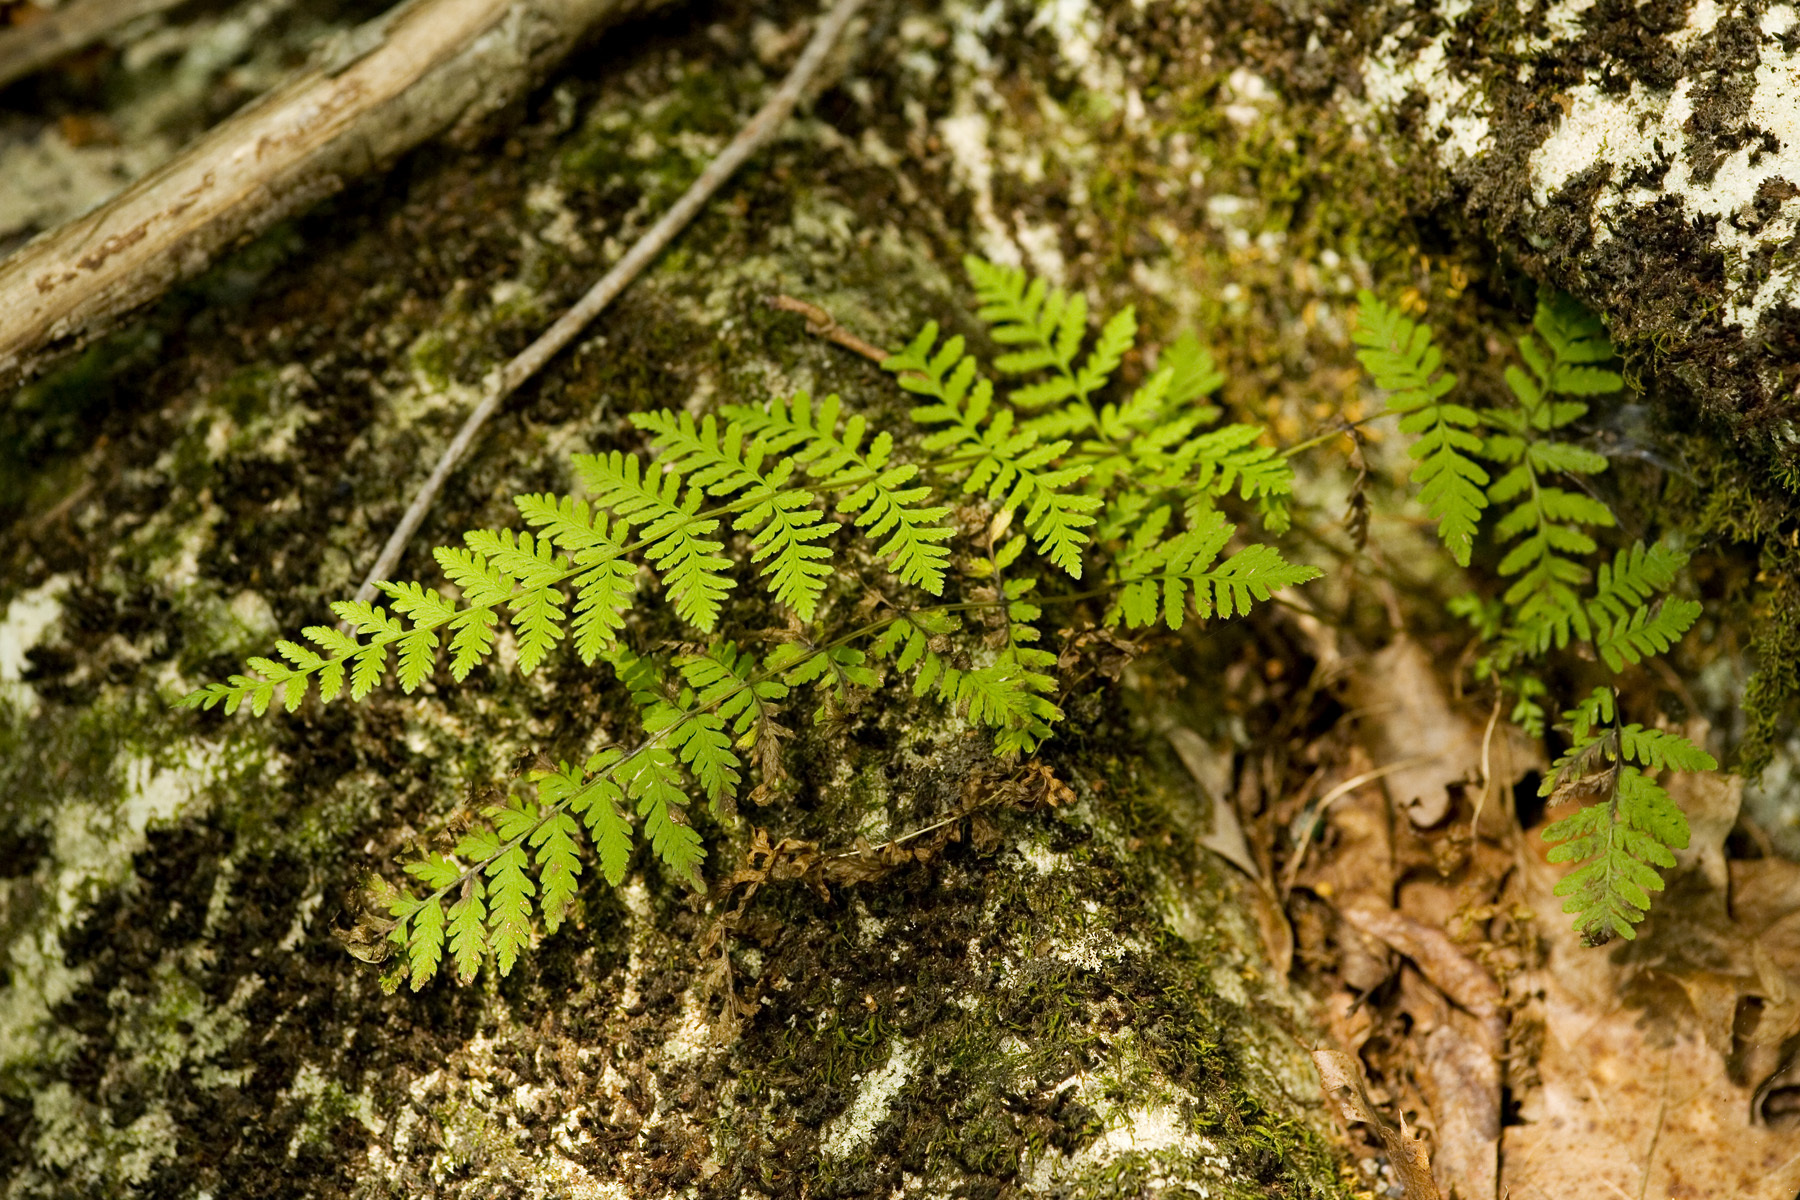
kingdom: Plantae
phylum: Tracheophyta
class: Polypodiopsida
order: Polypodiales
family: Cystopteridaceae
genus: Cystopteris
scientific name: Cystopteris bulbifera
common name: Bulblet bladder fern
